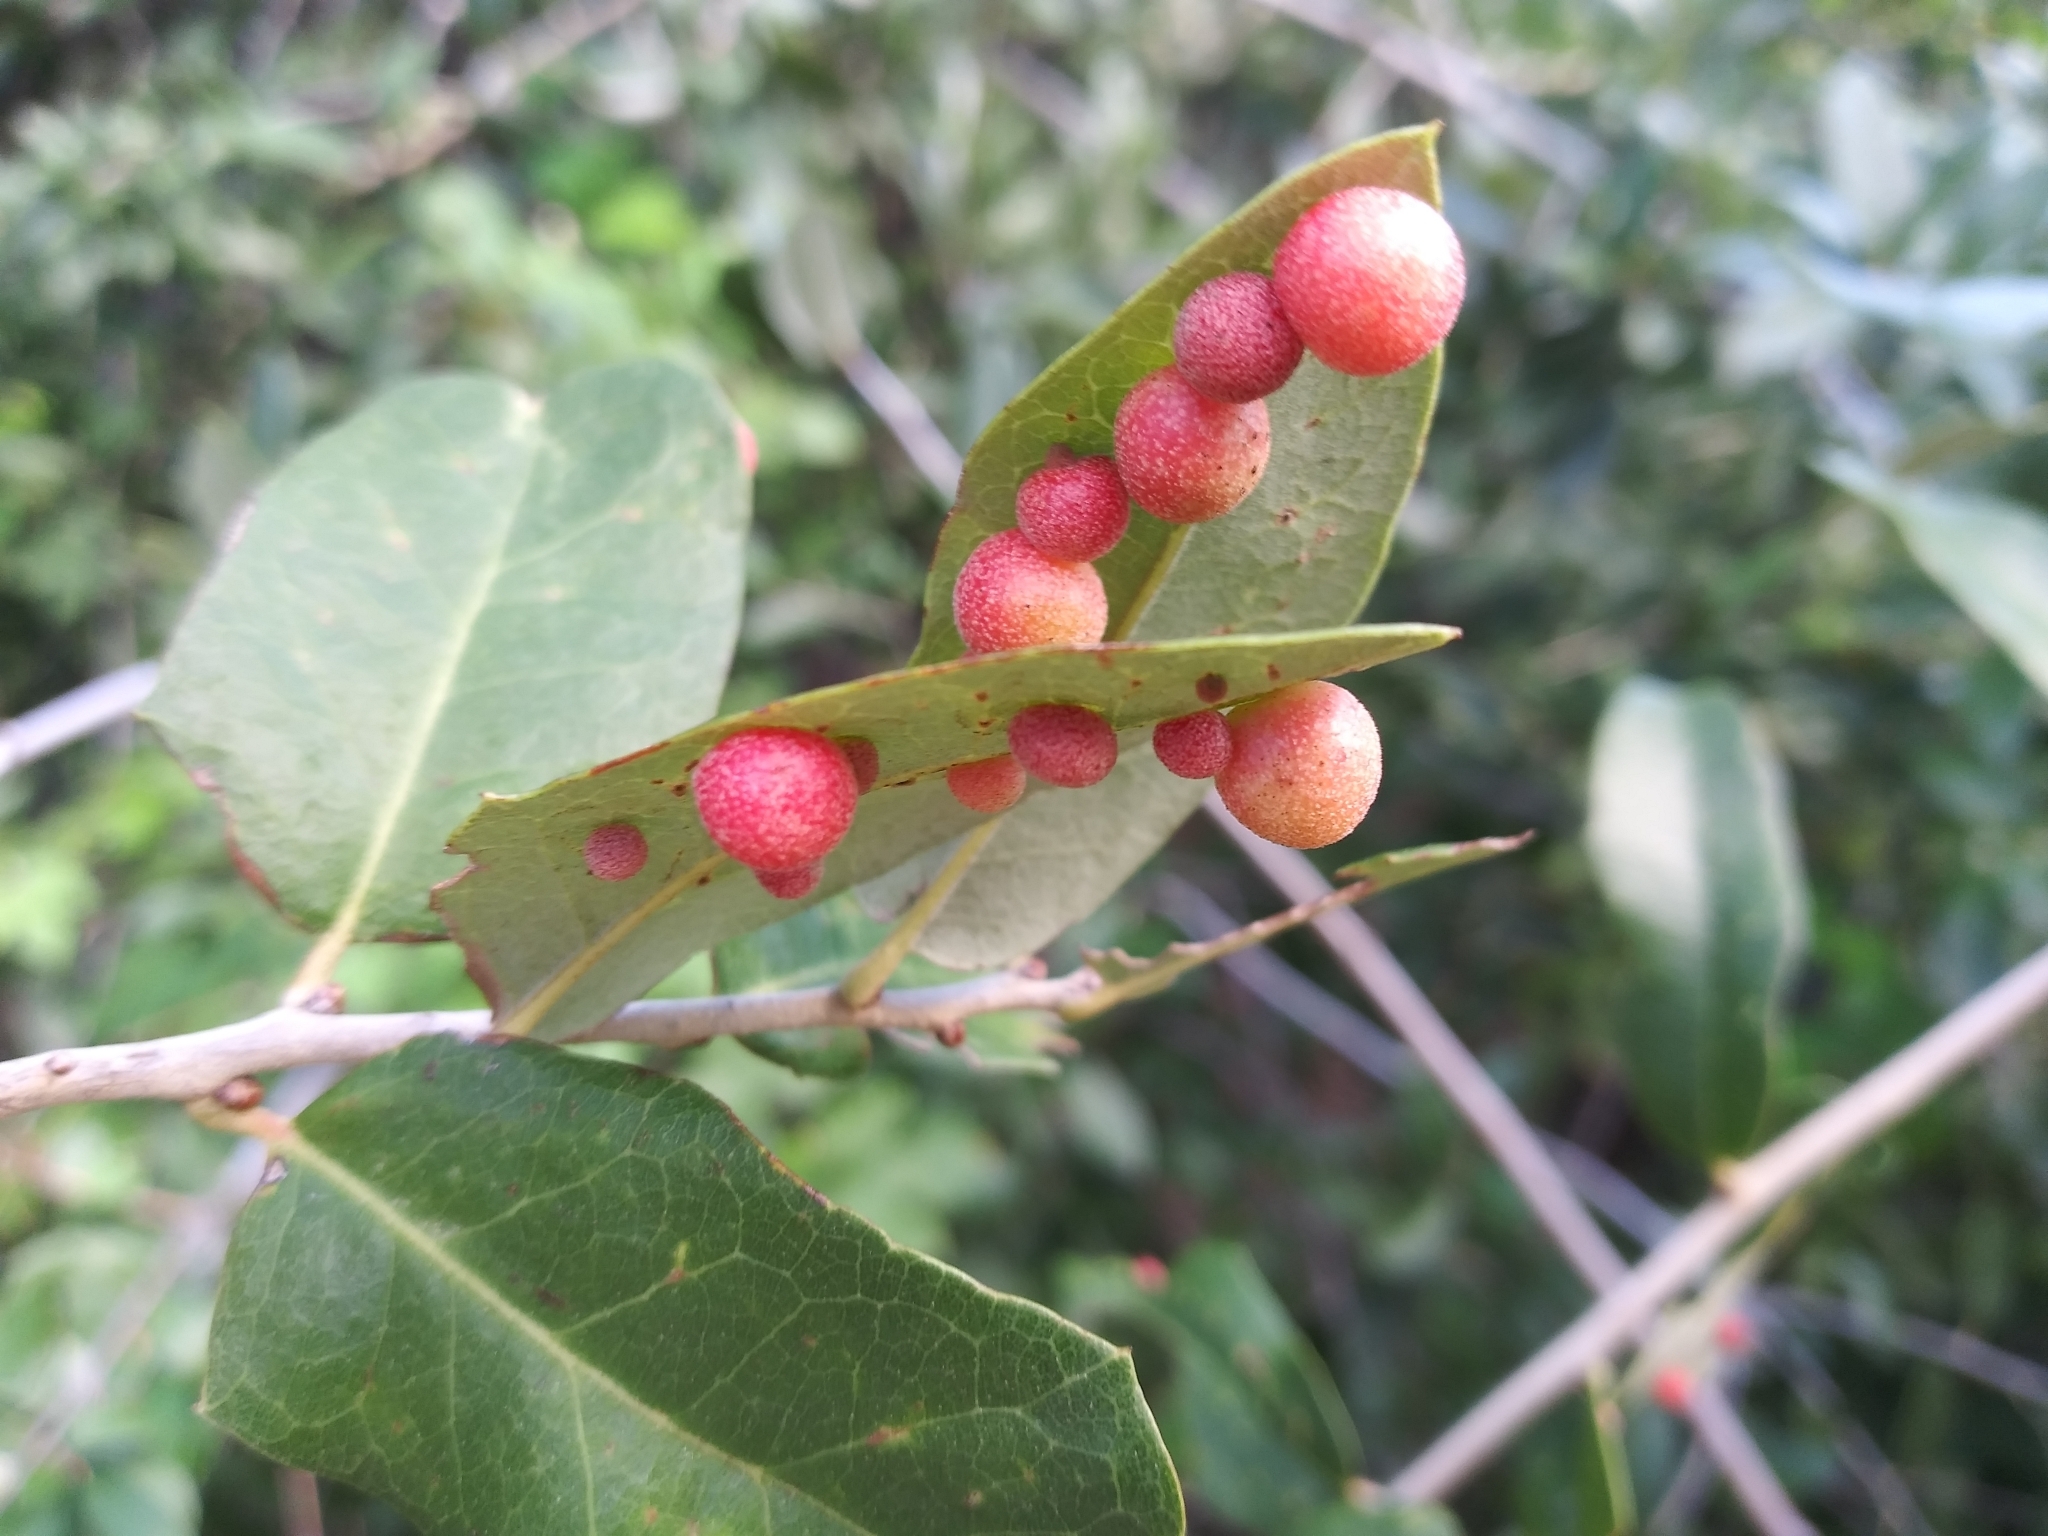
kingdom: Animalia
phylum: Arthropoda
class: Insecta
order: Hymenoptera
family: Cynipidae
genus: Belonocnema
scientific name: Belonocnema kinseyi
